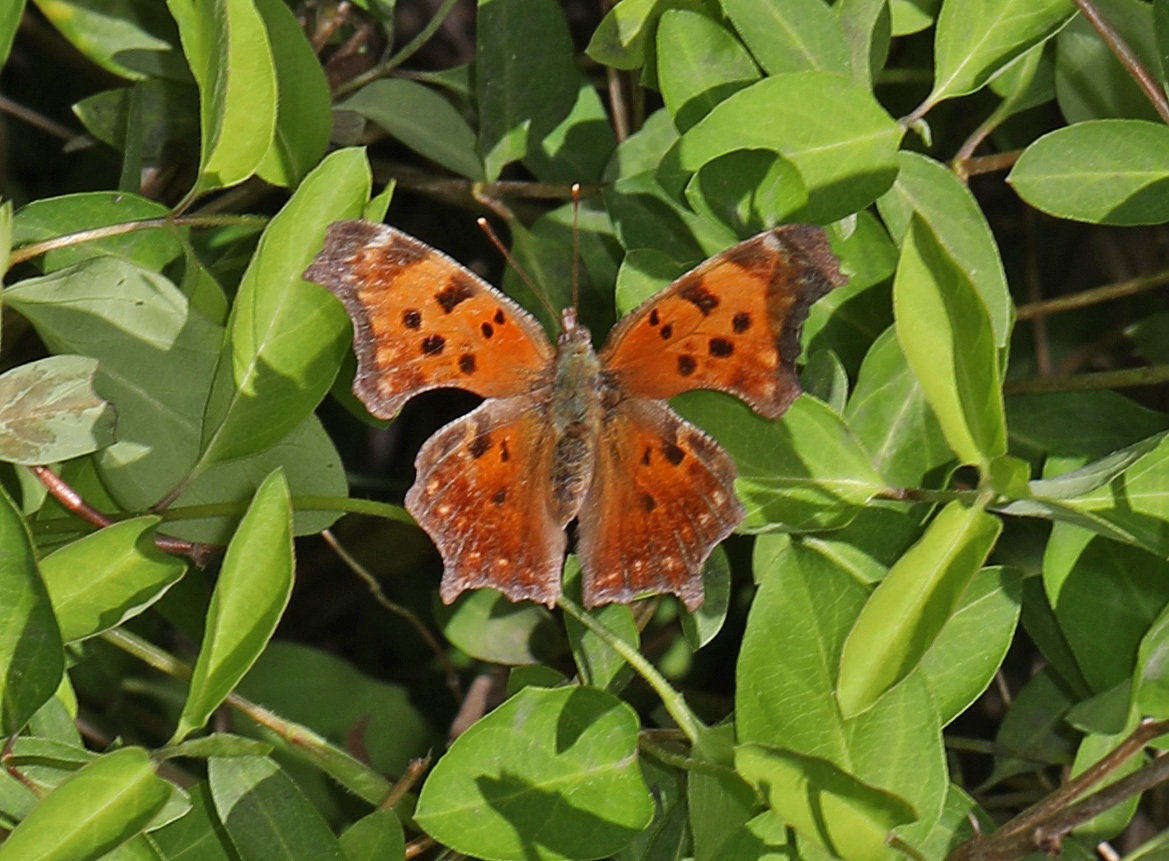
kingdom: Animalia
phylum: Arthropoda
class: Insecta
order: Lepidoptera
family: Nymphalidae
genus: Polygonia
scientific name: Polygonia comma
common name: Eastern comma
